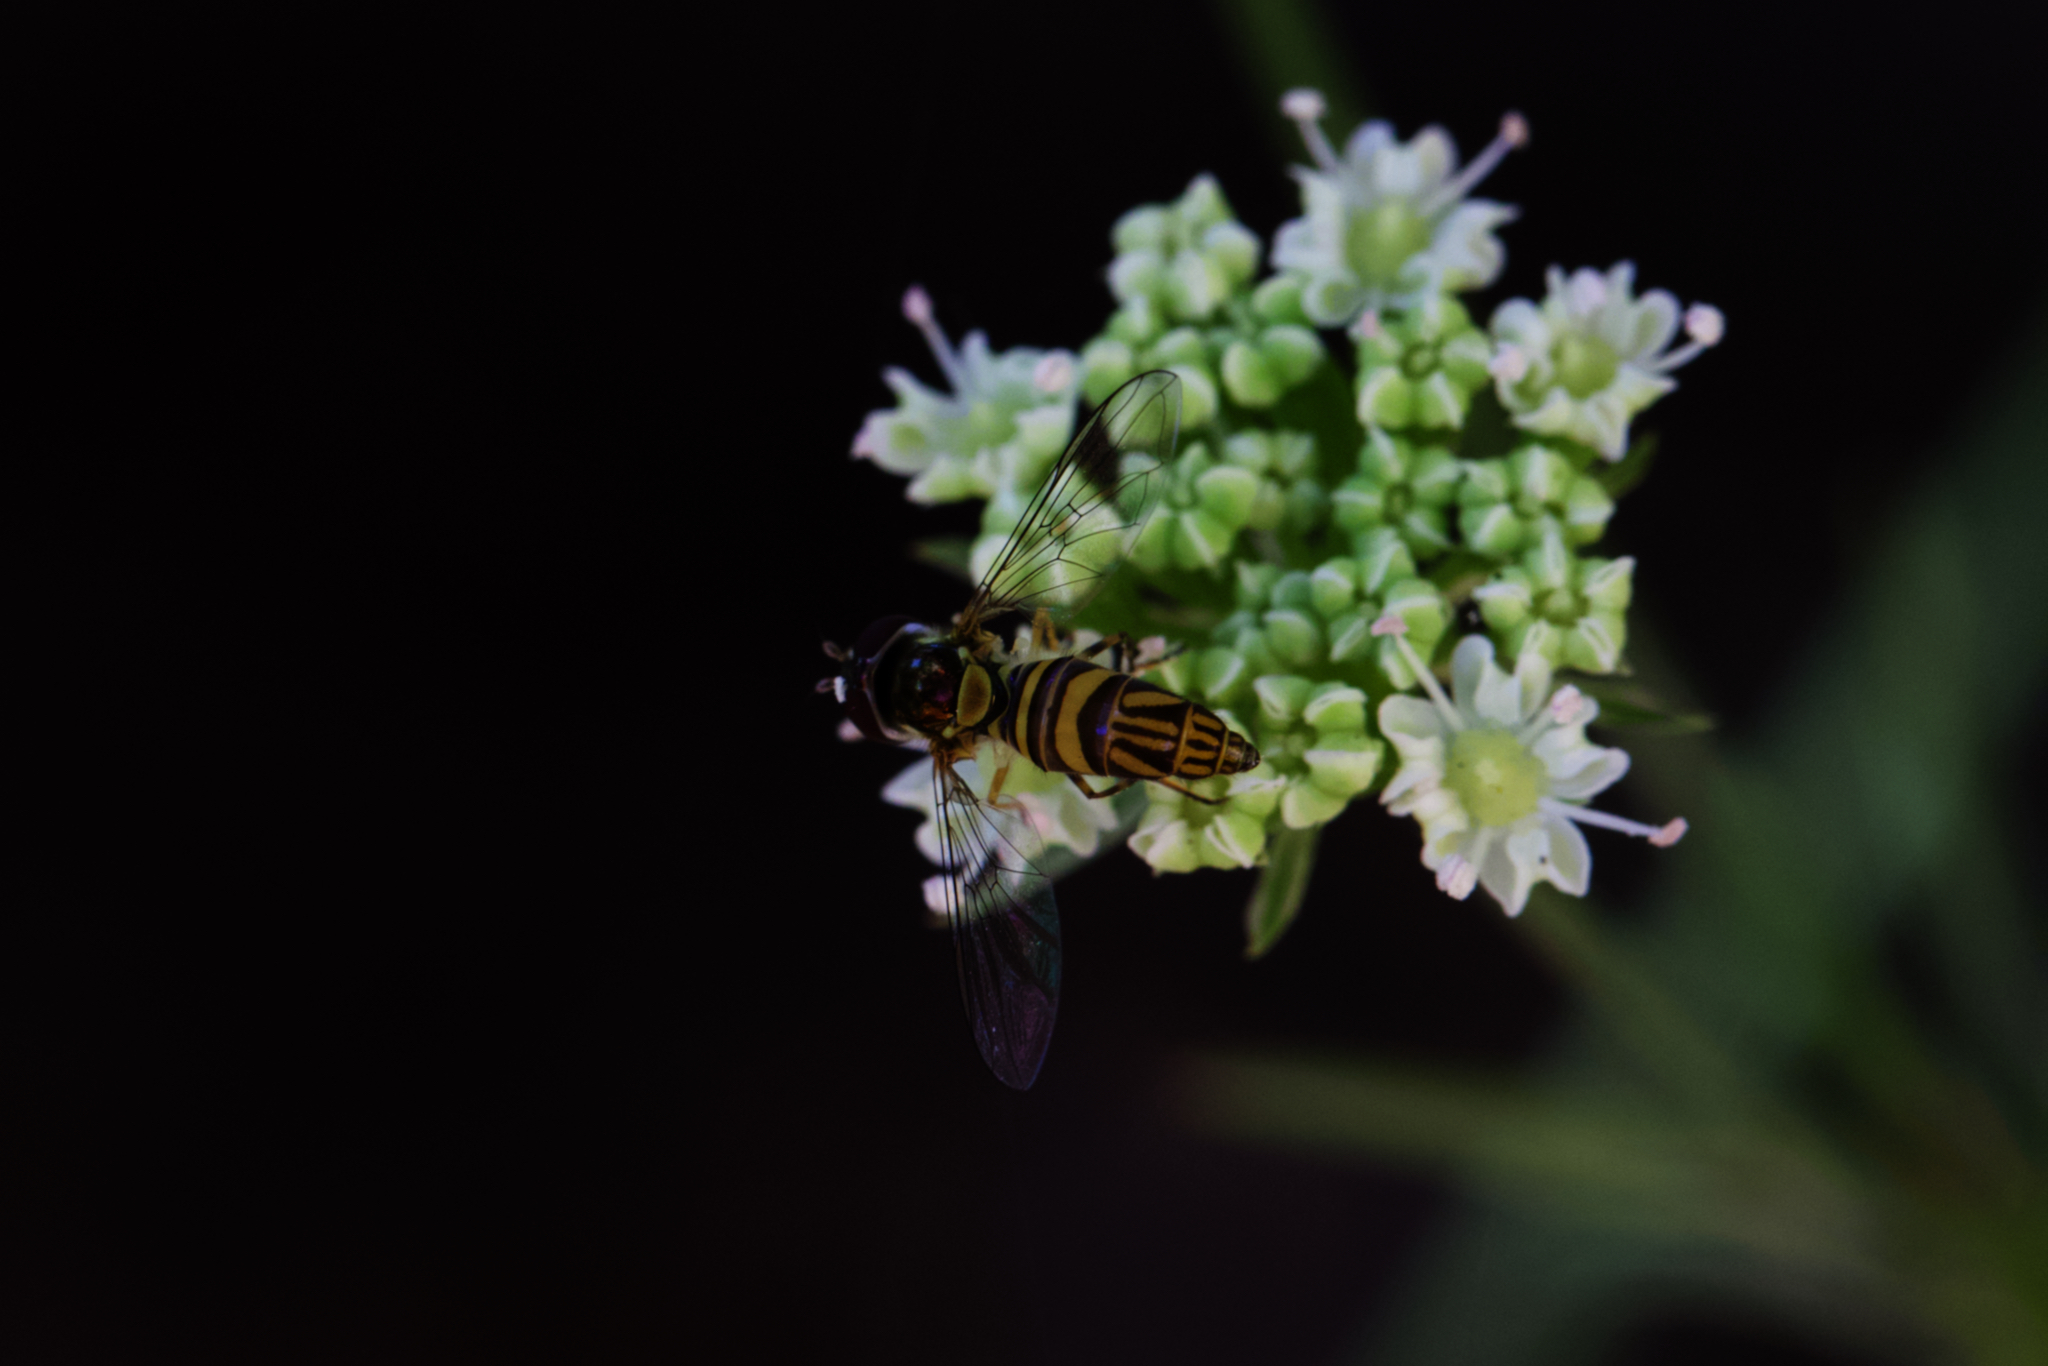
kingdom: Animalia
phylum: Arthropoda
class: Insecta
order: Diptera
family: Syrphidae
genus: Allograpta
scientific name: Allograpta obliqua
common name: Common oblique syrphid
